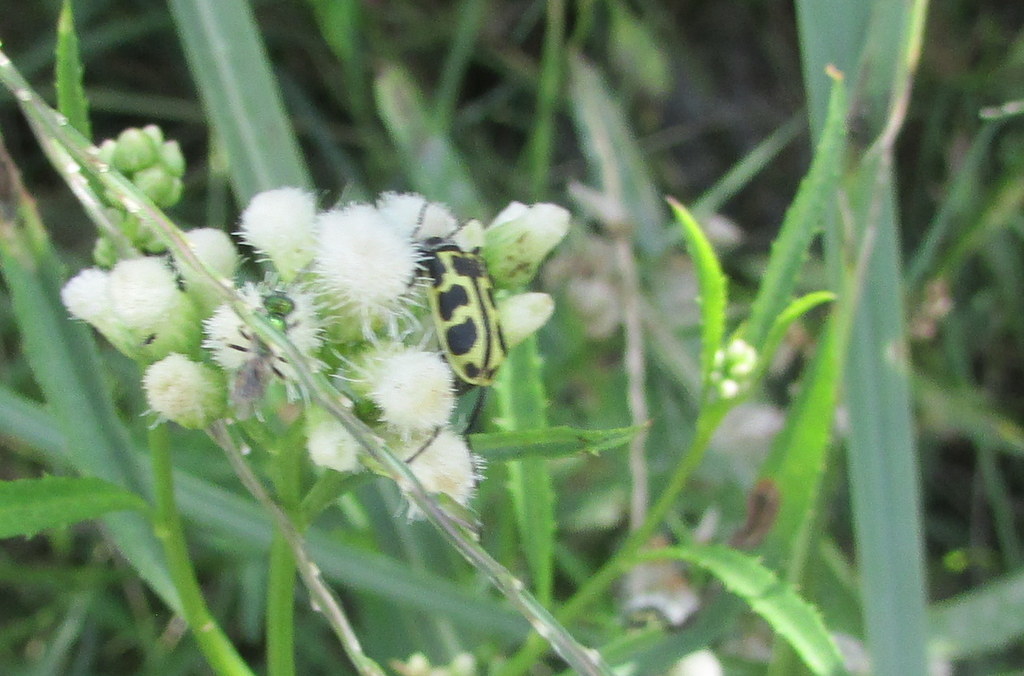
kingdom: Animalia
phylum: Arthropoda
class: Insecta
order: Coleoptera
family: Melyridae
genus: Astylus
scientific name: Astylus atromaculatus
